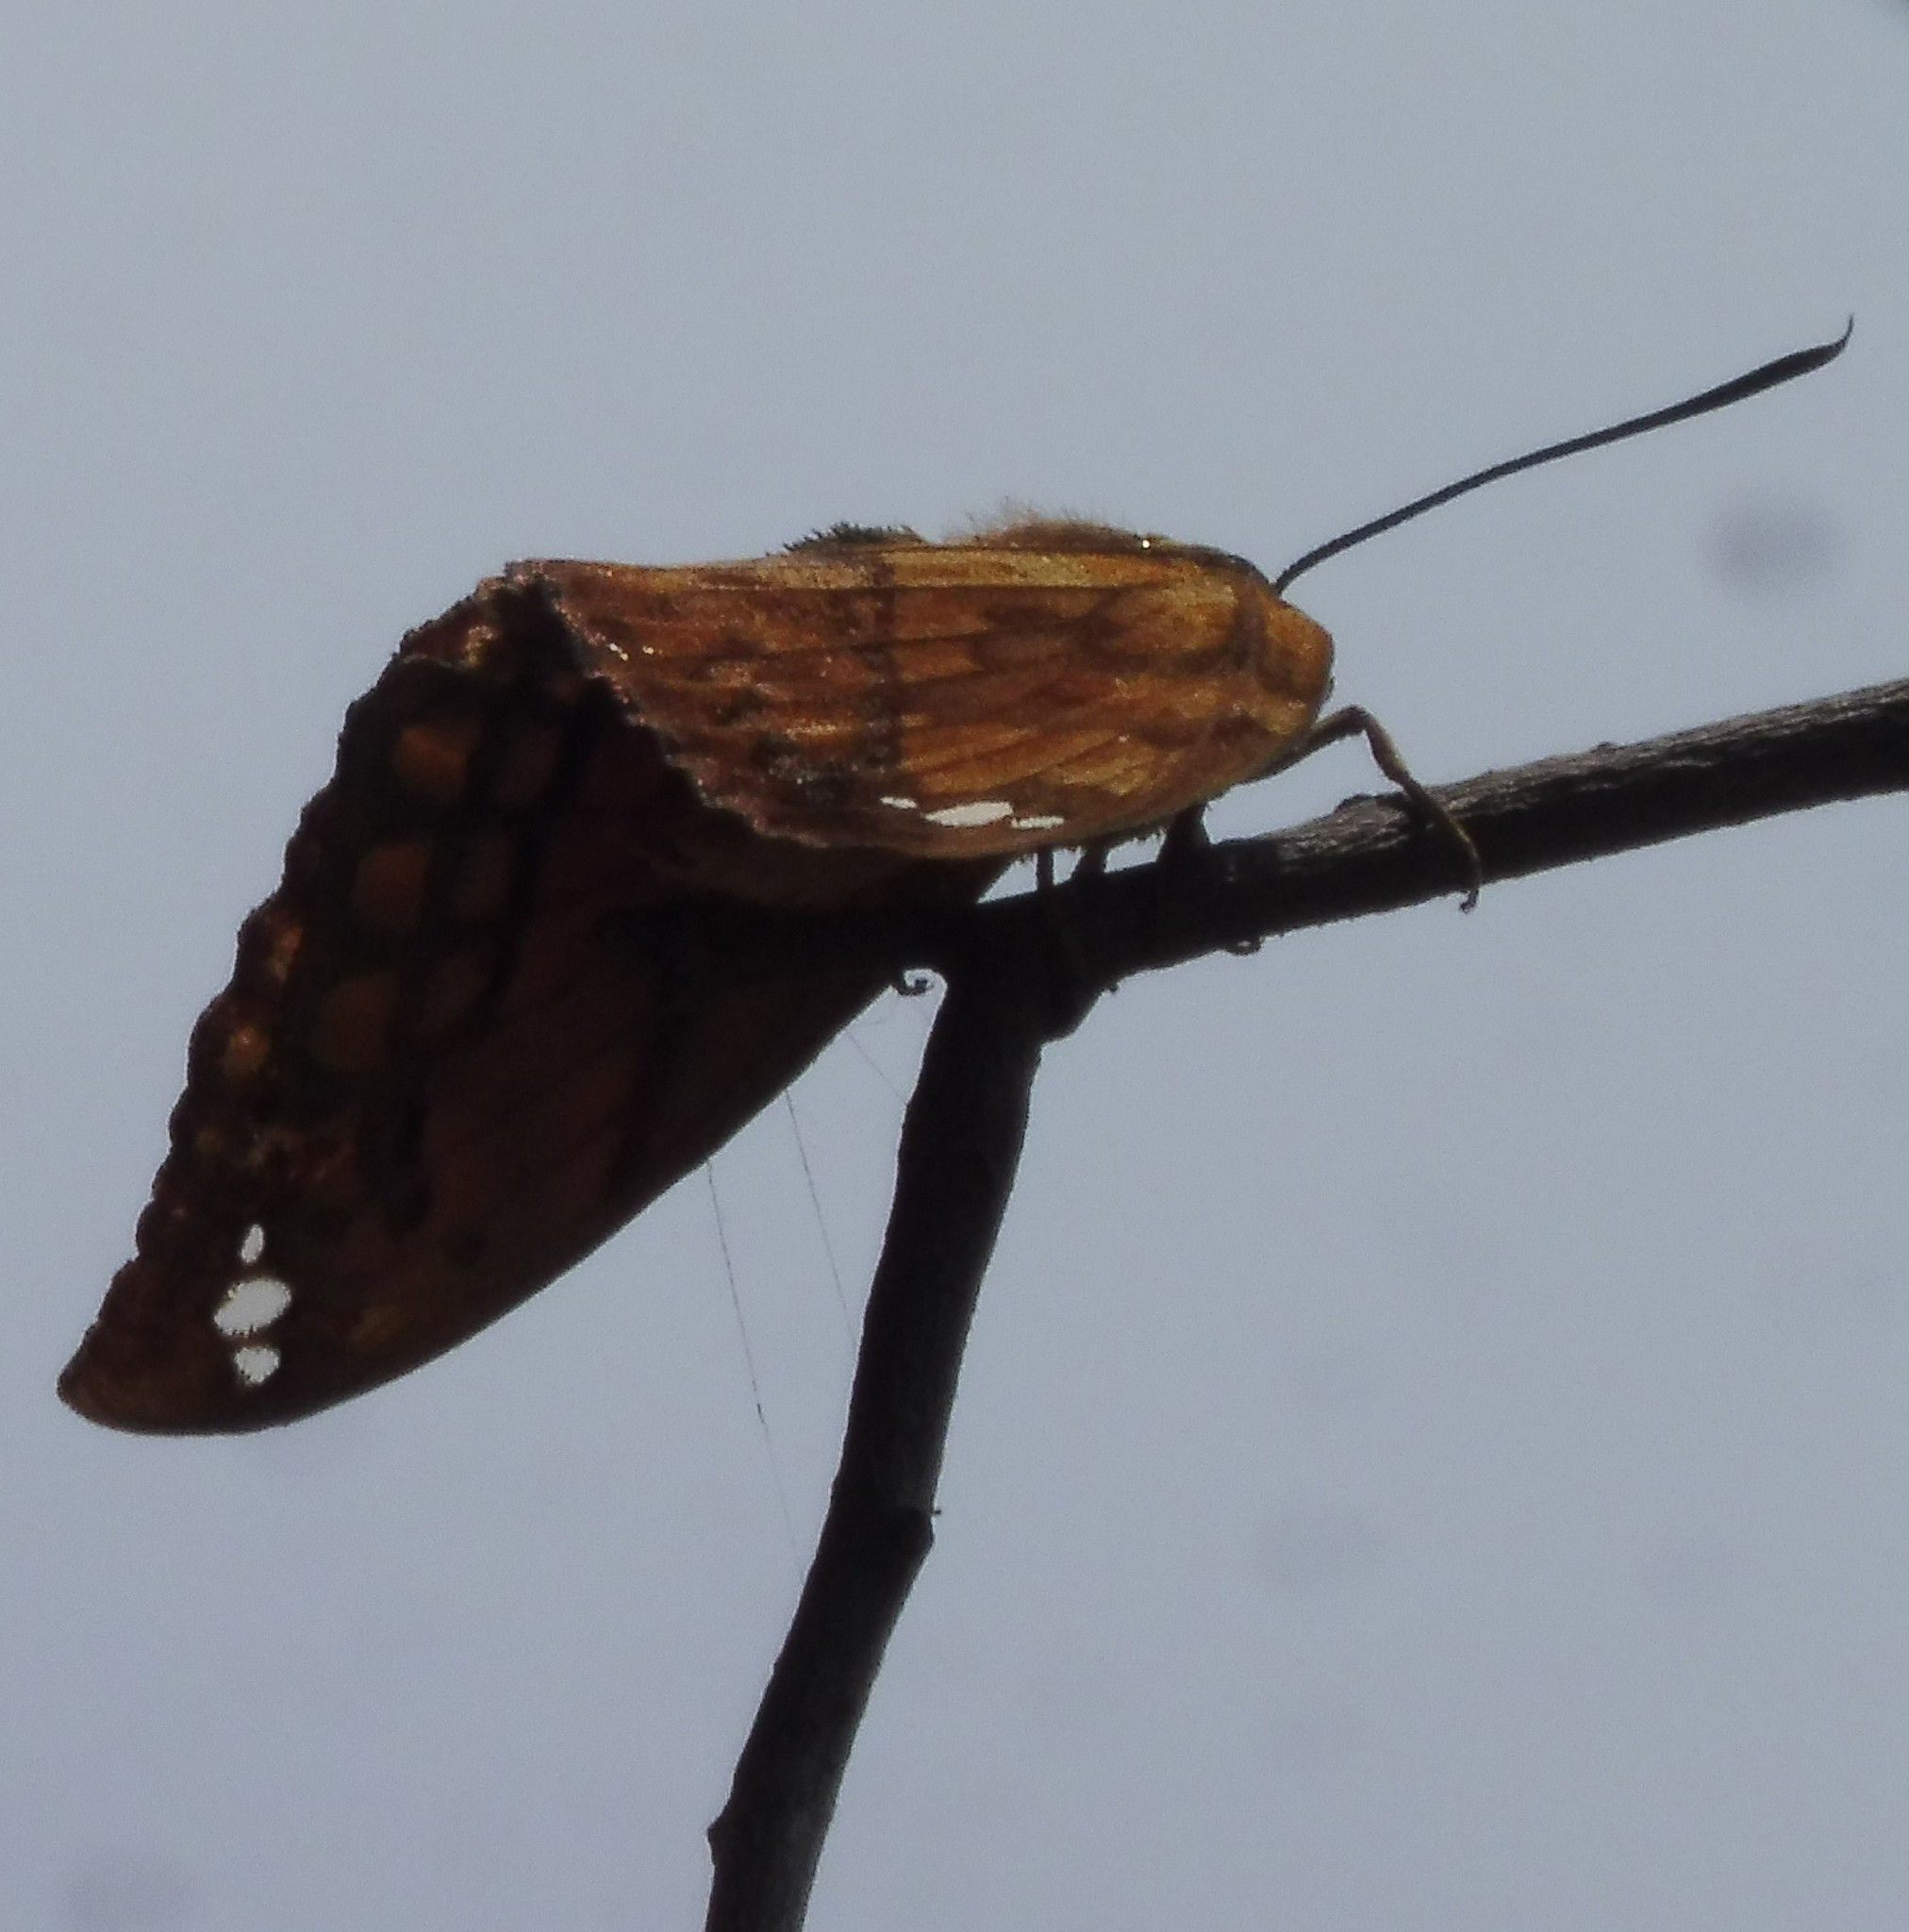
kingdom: Animalia
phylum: Arthropoda
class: Insecta
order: Lepidoptera
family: Castniidae
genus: Athis
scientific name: Athis
